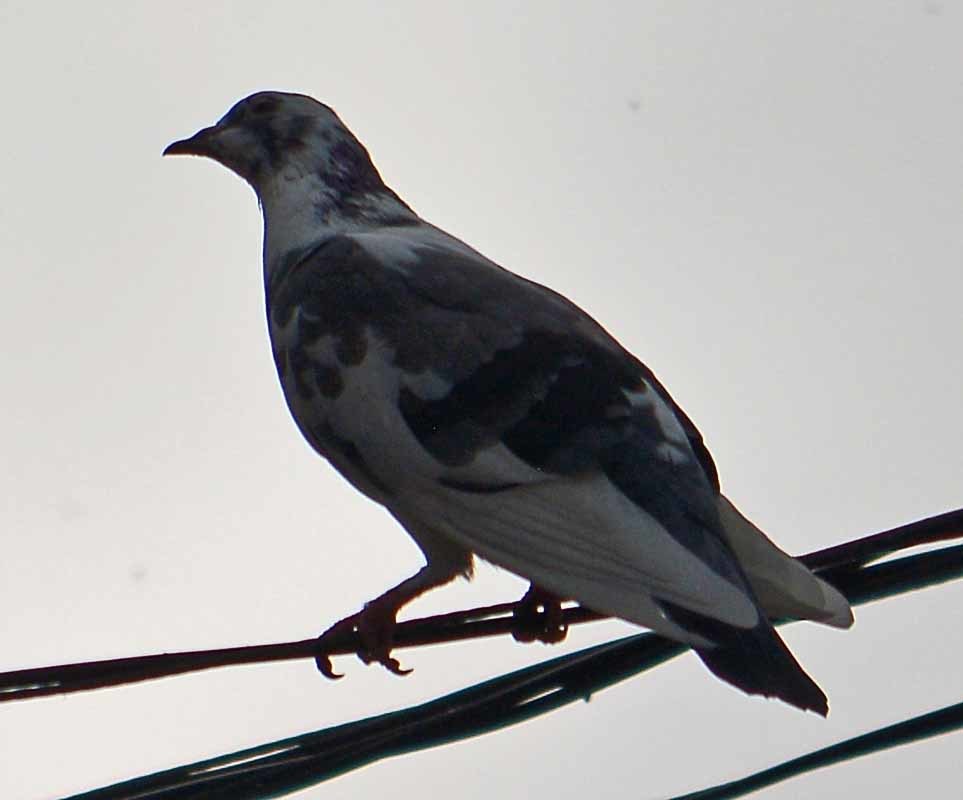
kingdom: Animalia
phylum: Chordata
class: Aves
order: Columbiformes
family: Columbidae
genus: Columba
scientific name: Columba livia
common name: Rock pigeon
